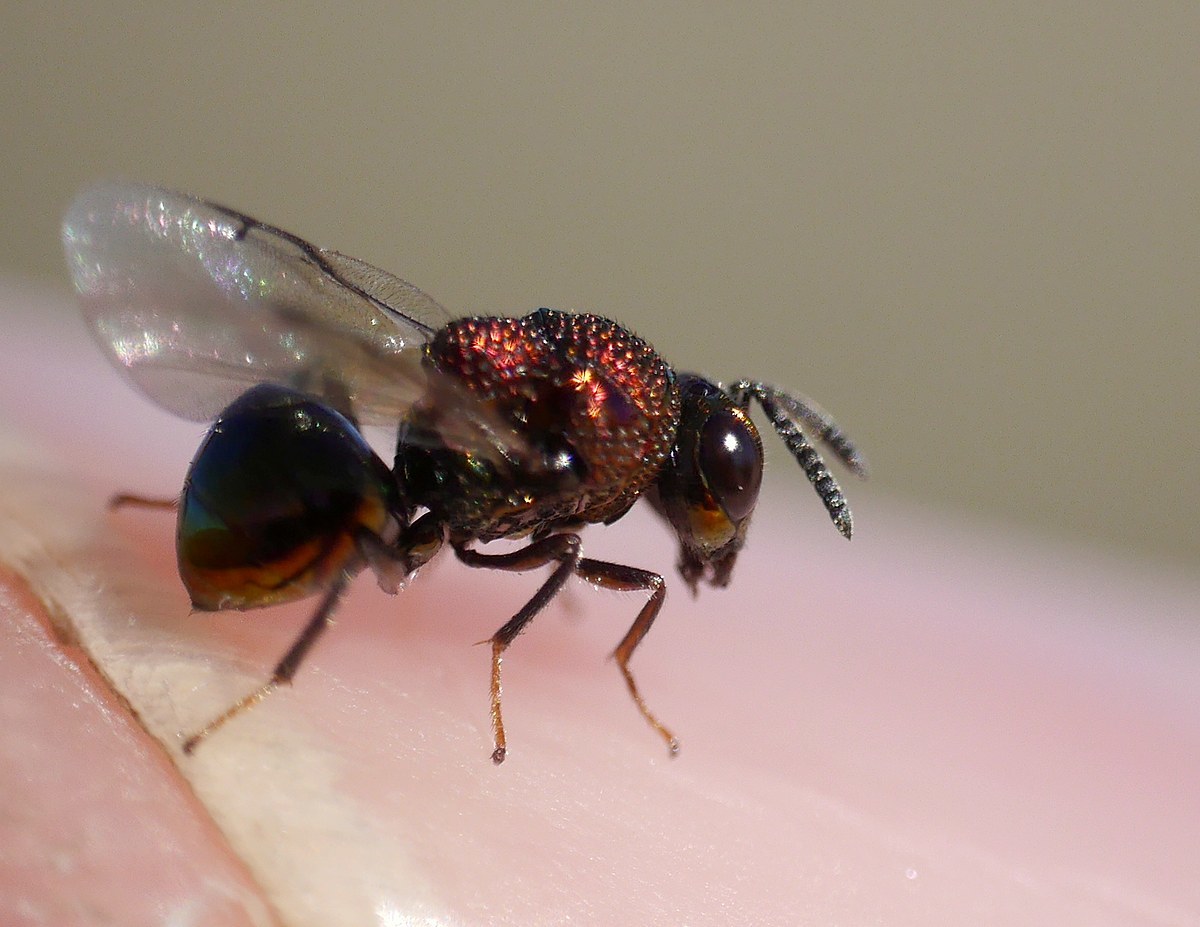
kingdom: Animalia
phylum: Arthropoda
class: Insecta
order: Hymenoptera
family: Perilampidae
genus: Perilampus
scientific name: Perilampus aeneus
